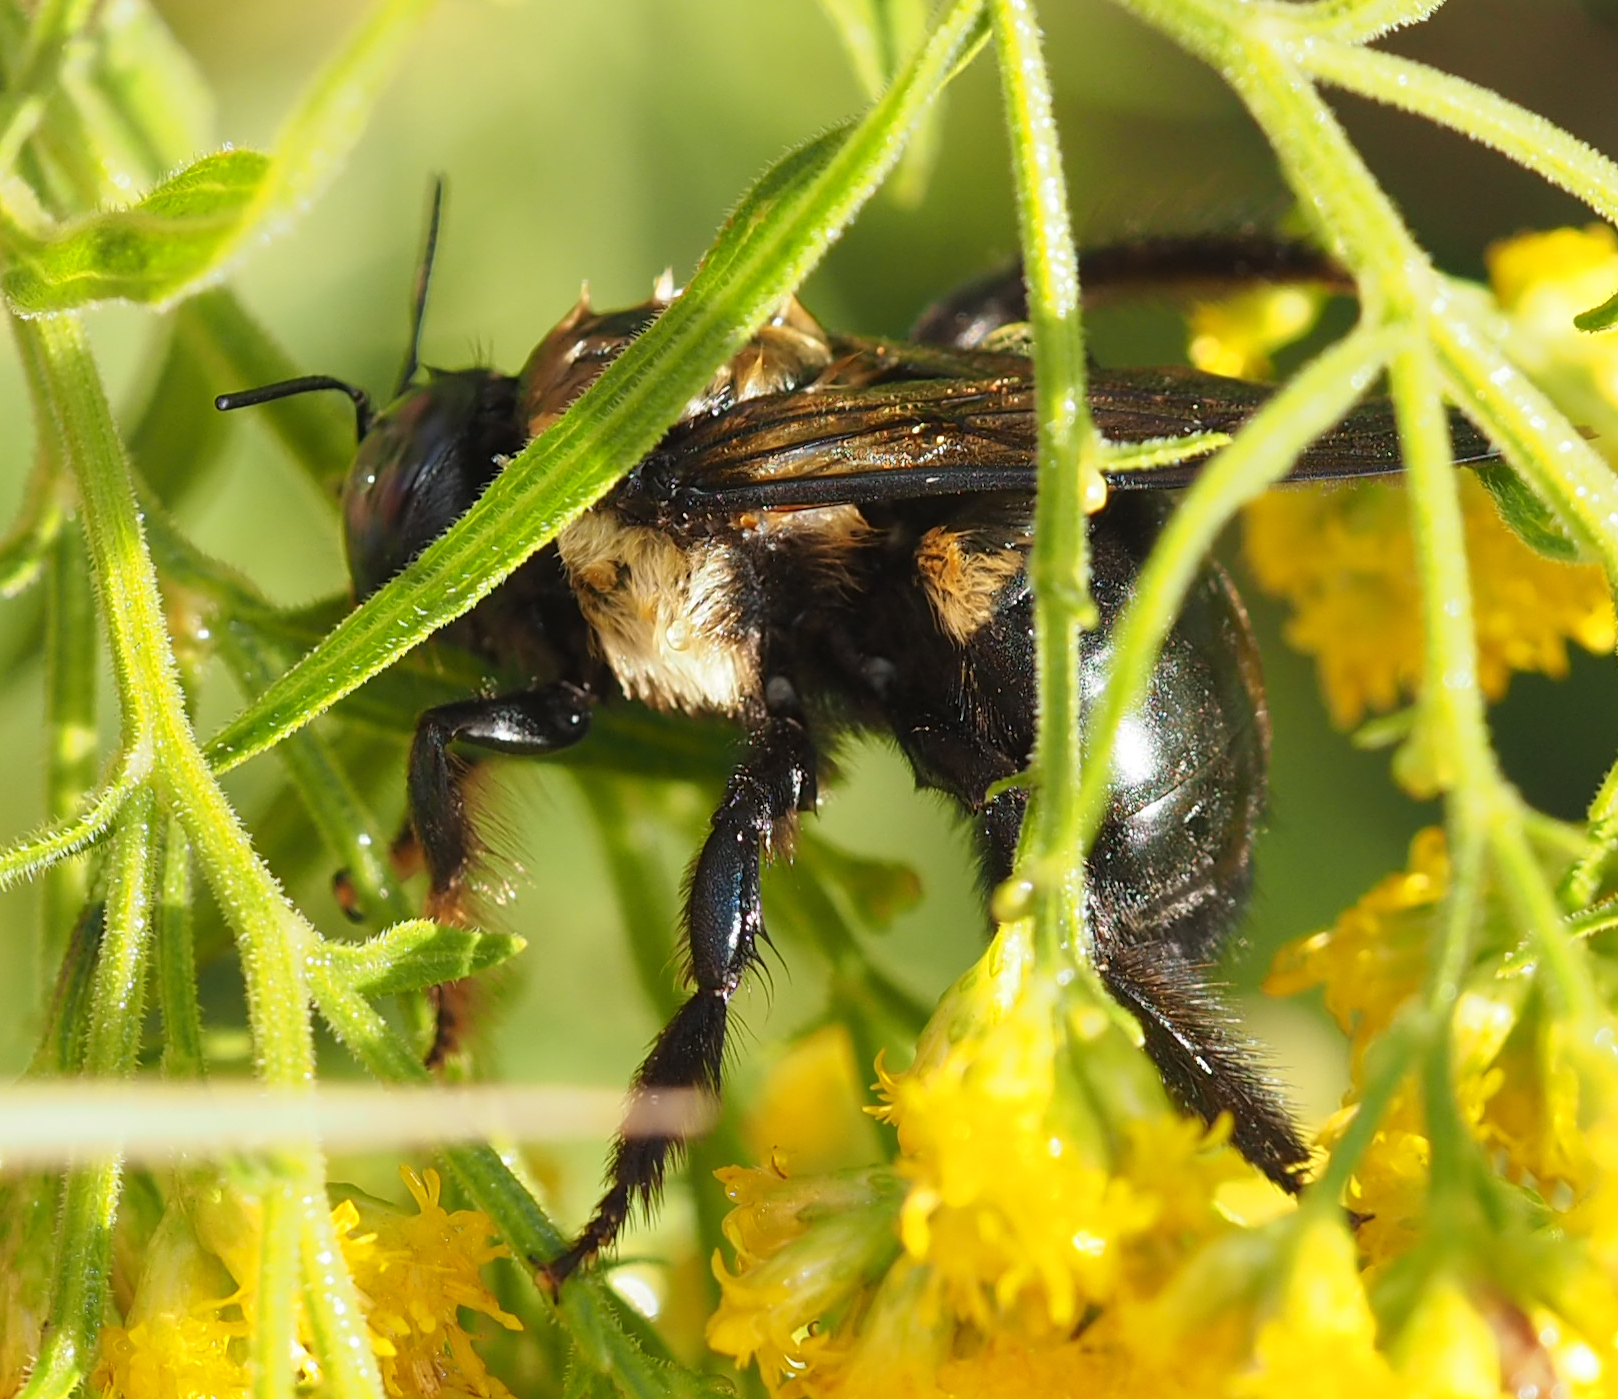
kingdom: Animalia
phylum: Arthropoda
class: Insecta
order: Hymenoptera
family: Apidae
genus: Xylocopa
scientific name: Xylocopa virginica
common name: Carpenter bee
